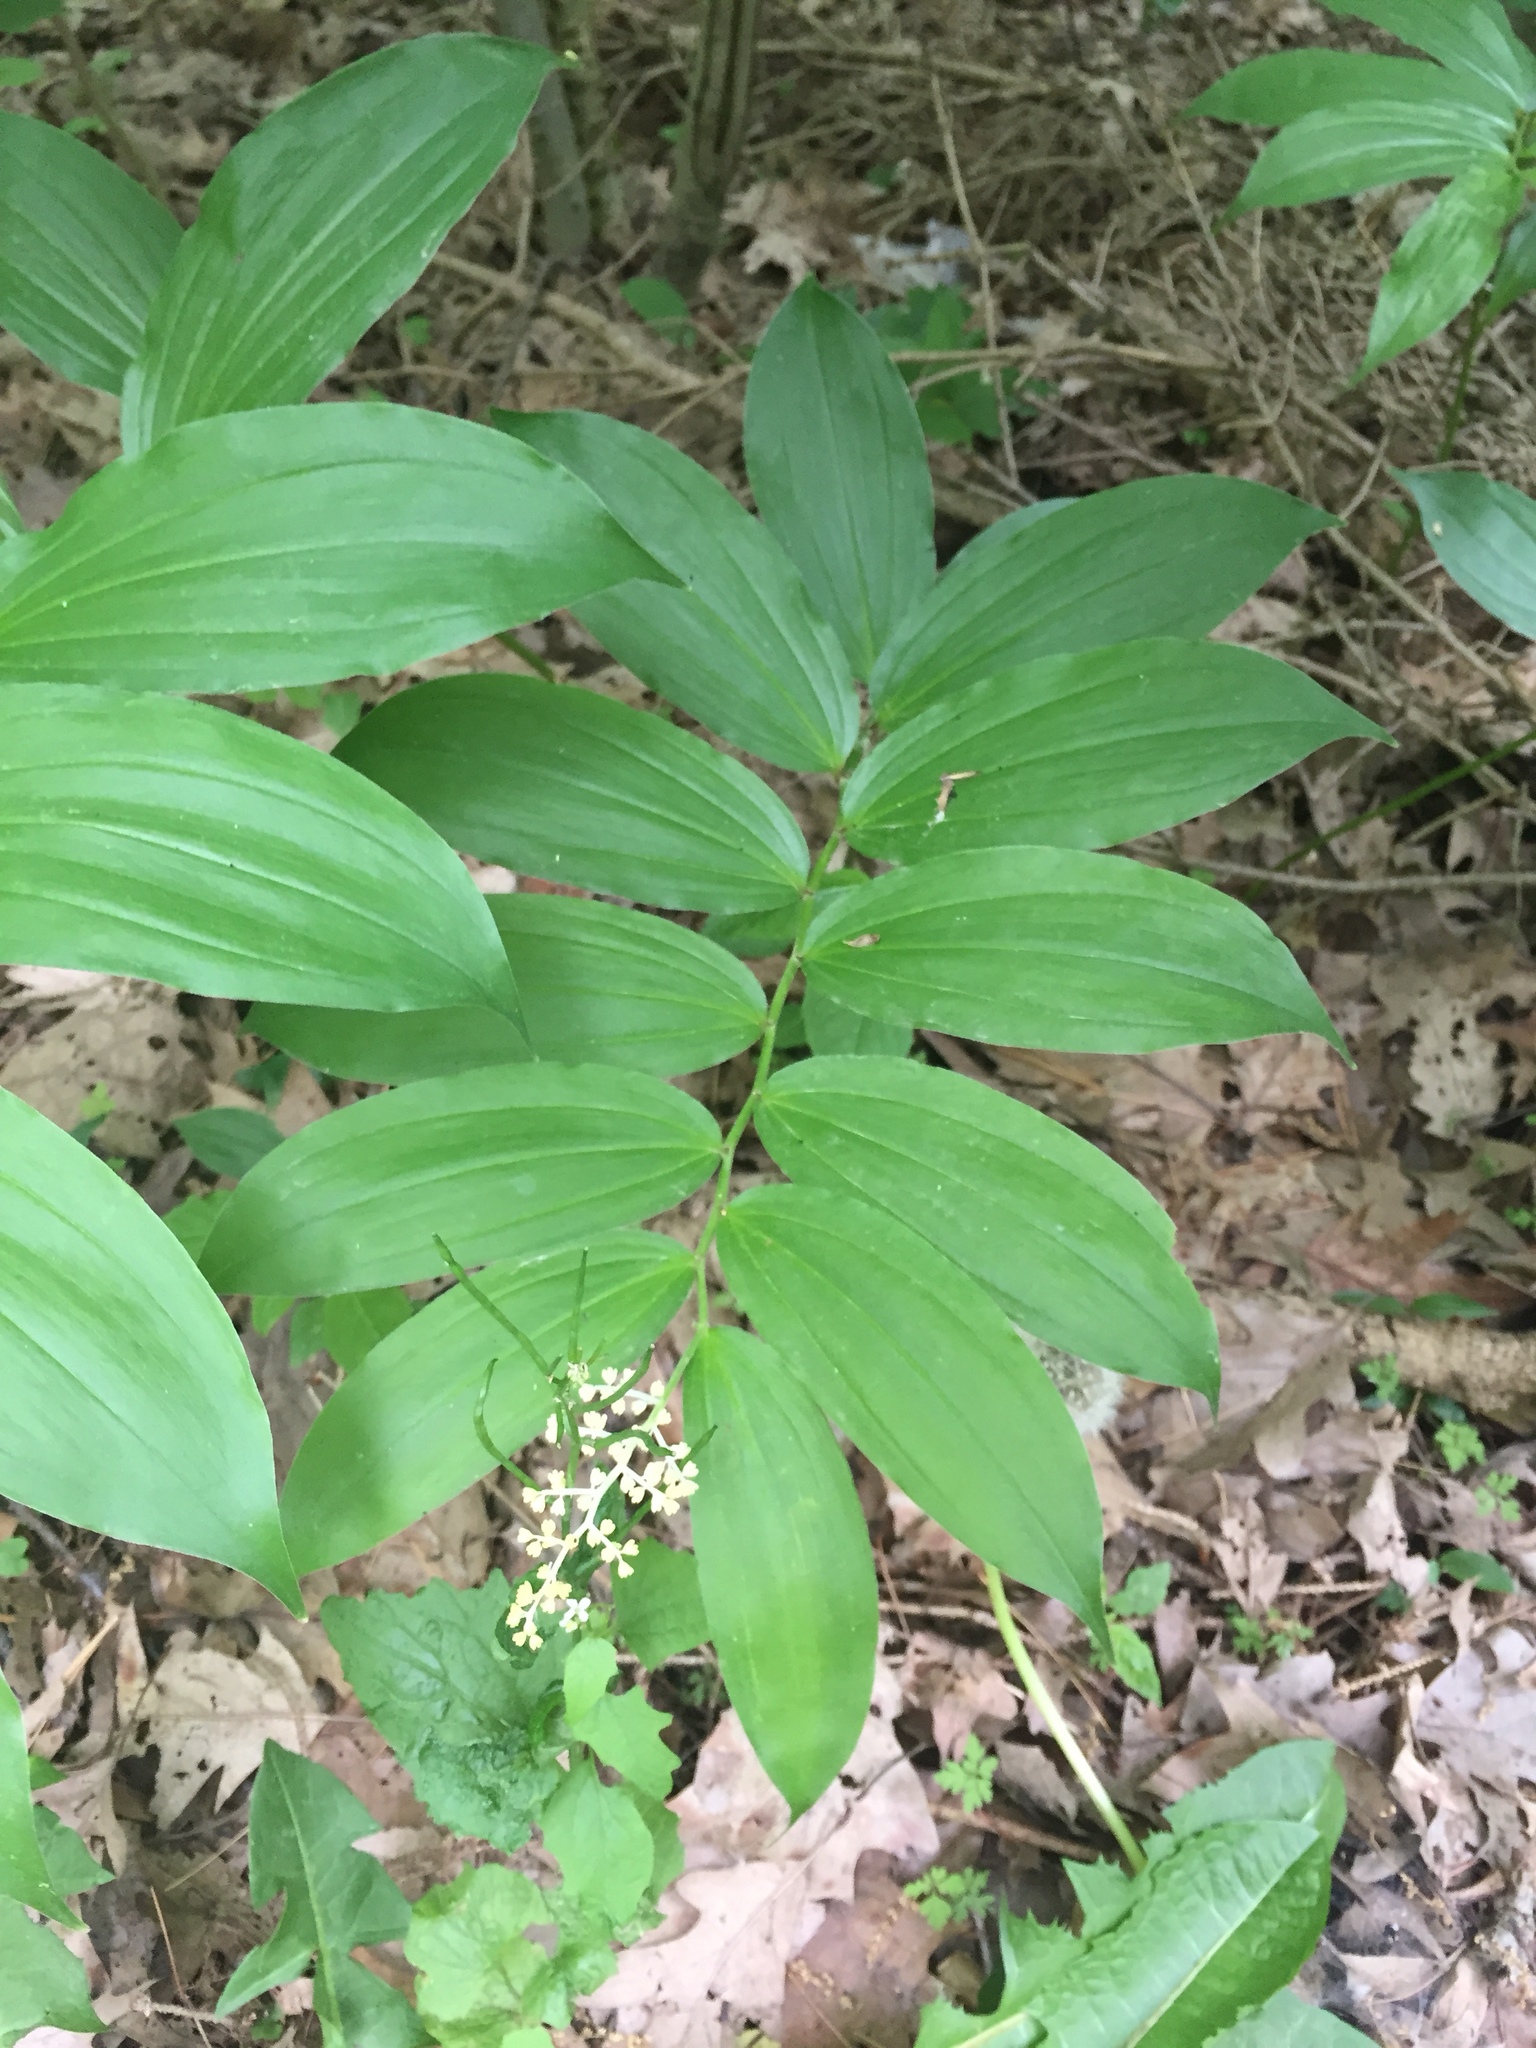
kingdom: Plantae
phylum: Tracheophyta
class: Liliopsida
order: Asparagales
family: Asparagaceae
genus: Maianthemum
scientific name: Maianthemum racemosum
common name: False spikenard
